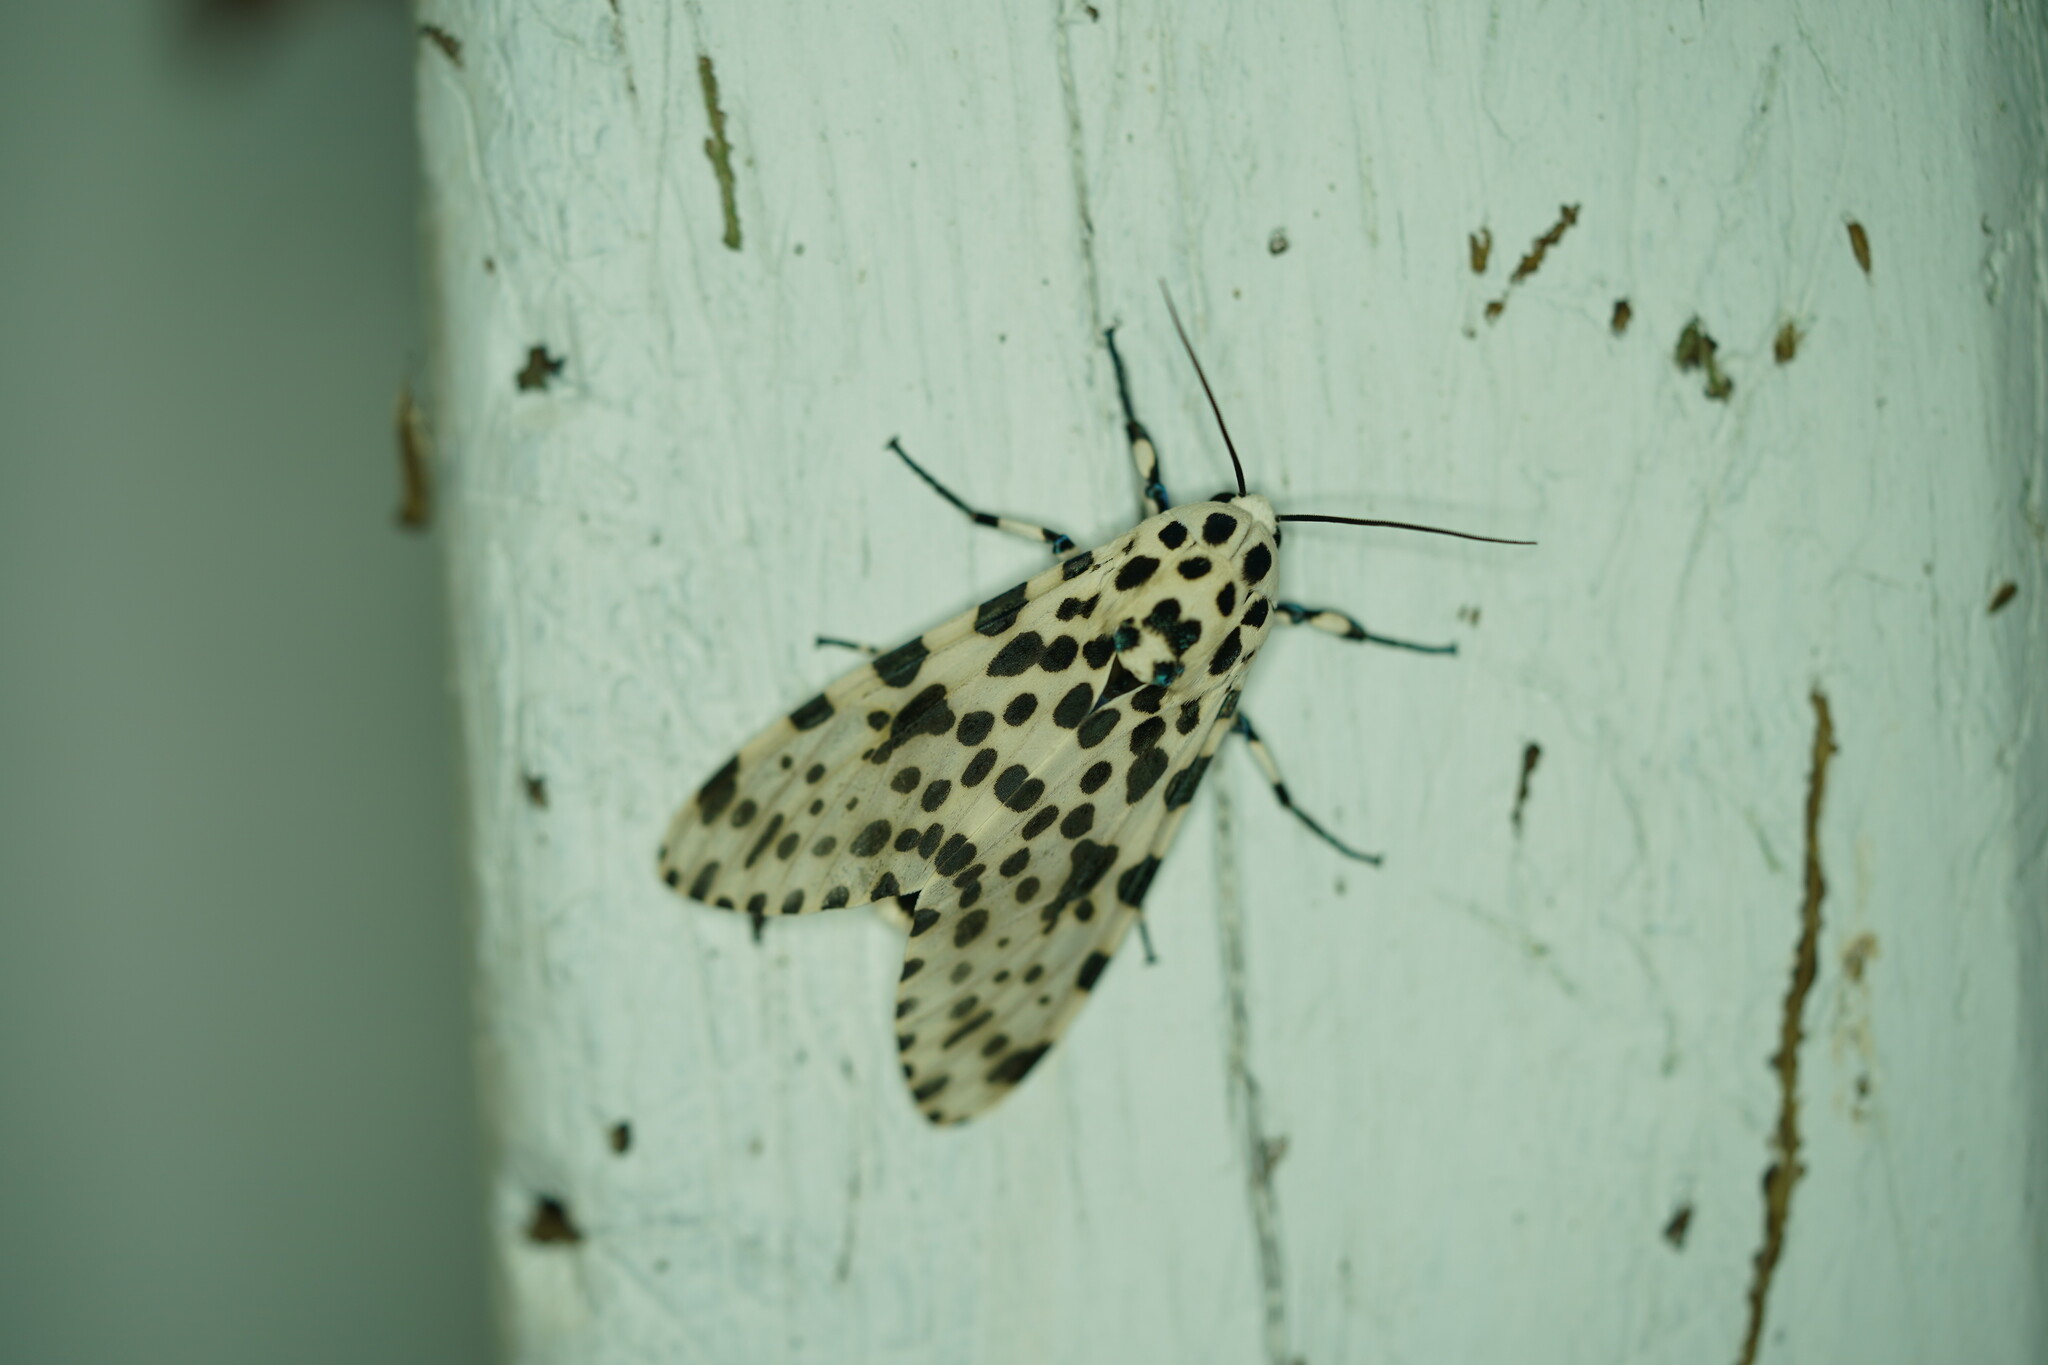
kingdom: Animalia
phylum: Arthropoda
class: Insecta
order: Lepidoptera
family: Erebidae
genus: Hypercompe
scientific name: Hypercompe scribonia
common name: Giant leopard moth
